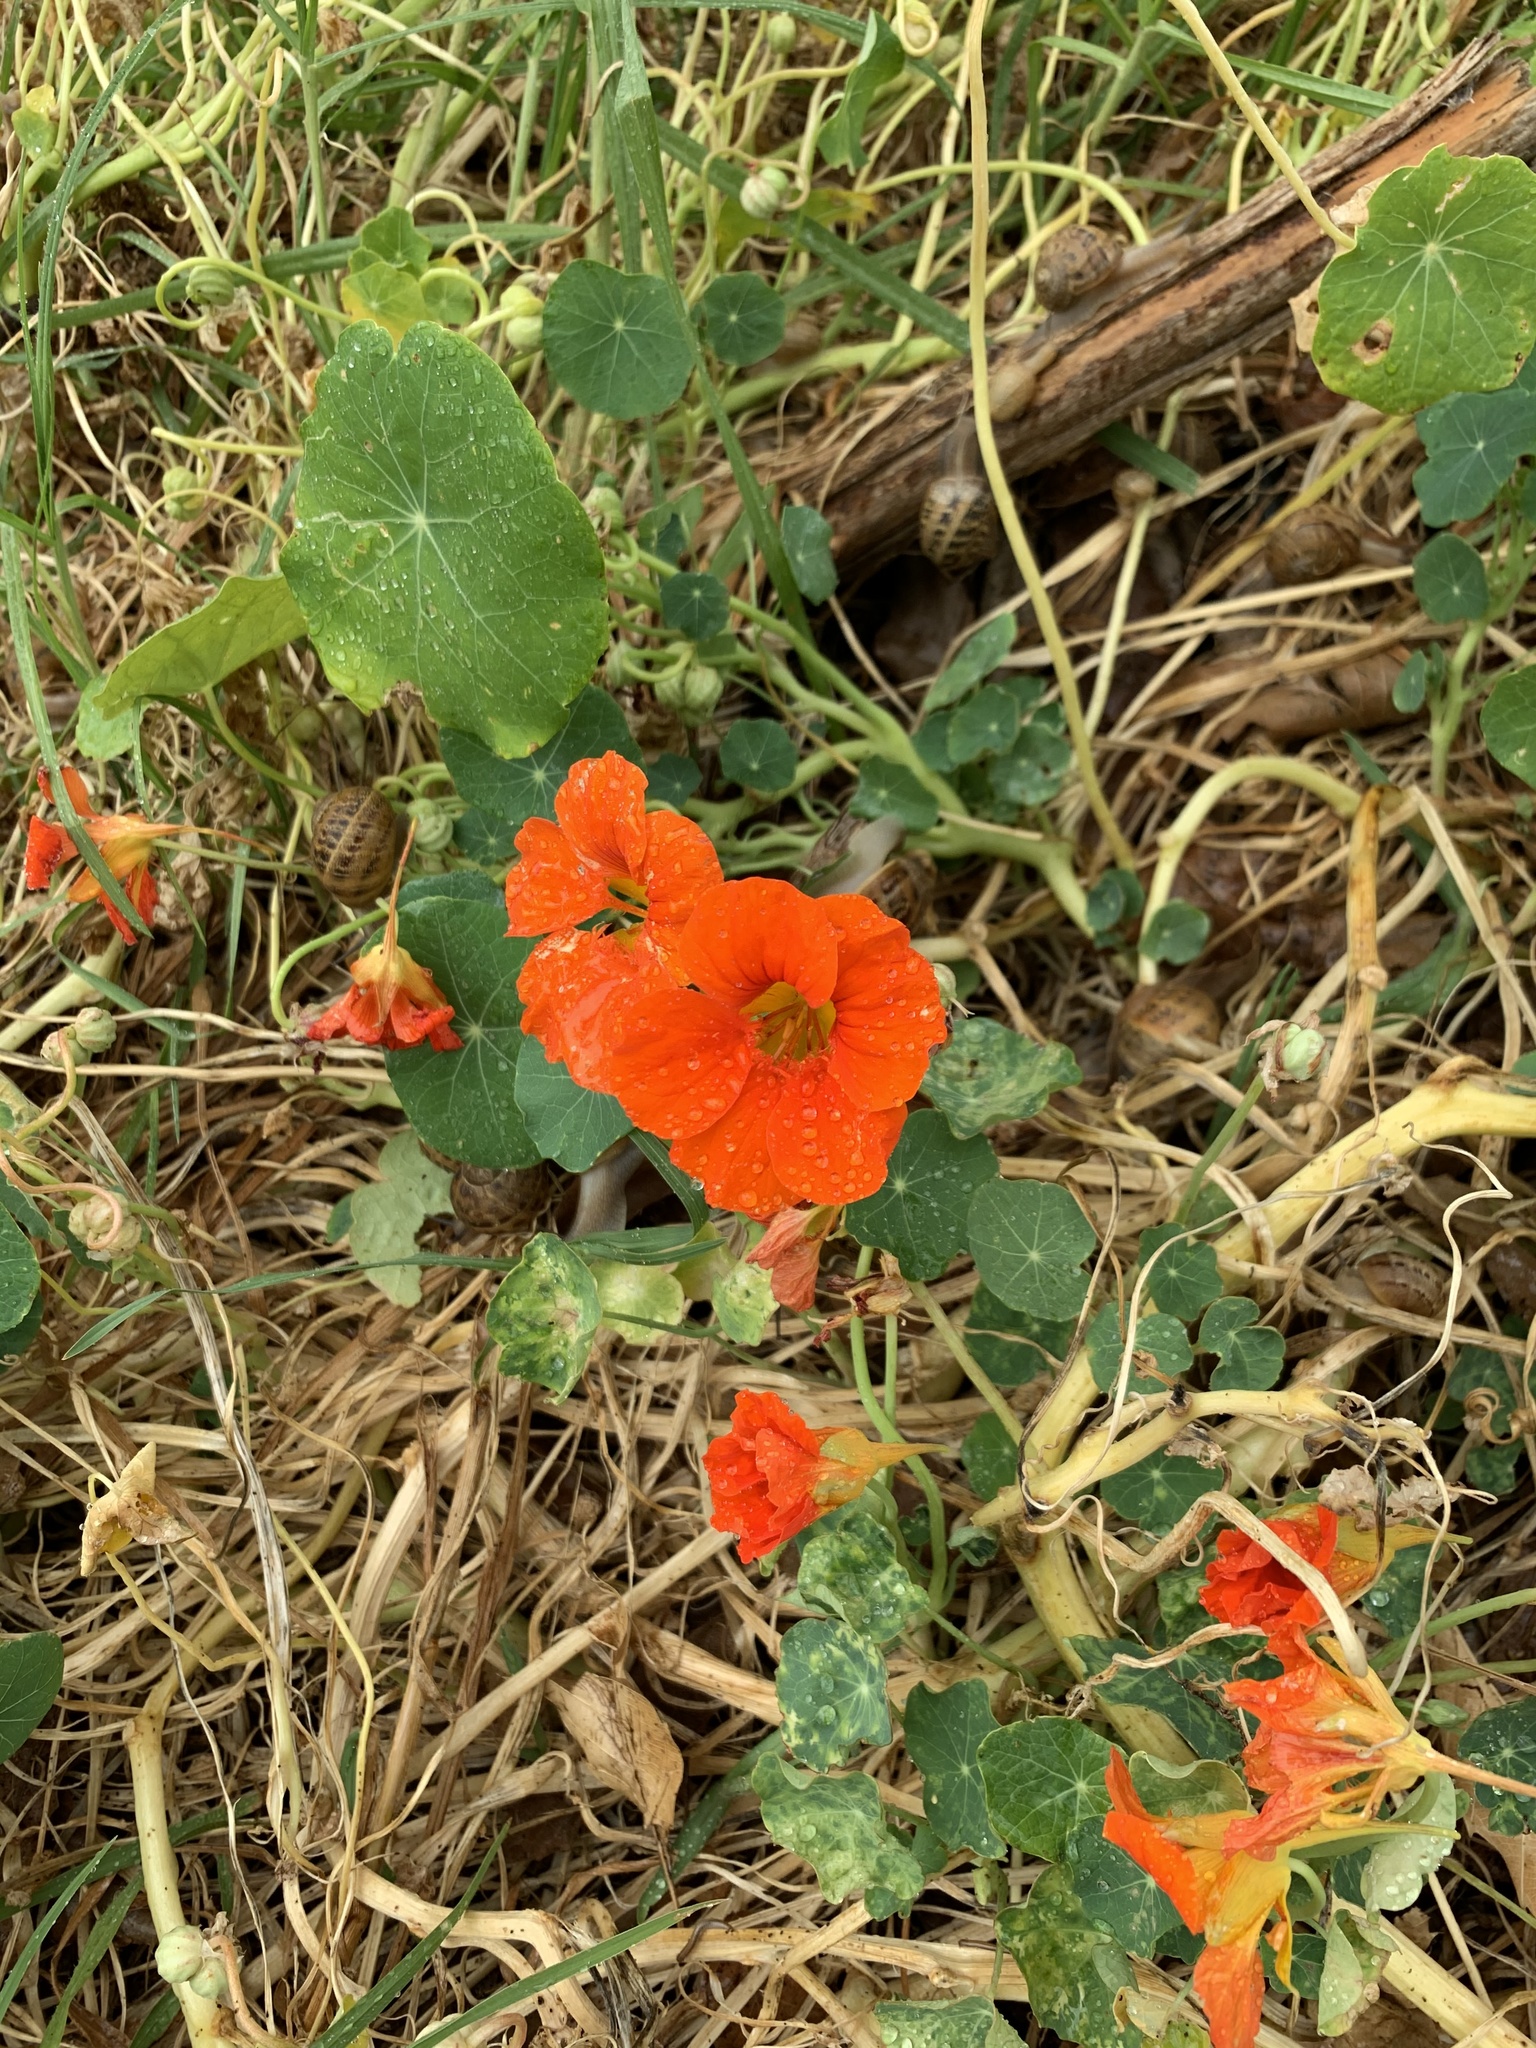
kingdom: Plantae
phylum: Tracheophyta
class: Magnoliopsida
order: Brassicales
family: Tropaeolaceae
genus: Tropaeolum
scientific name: Tropaeolum majus
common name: Nasturtium
